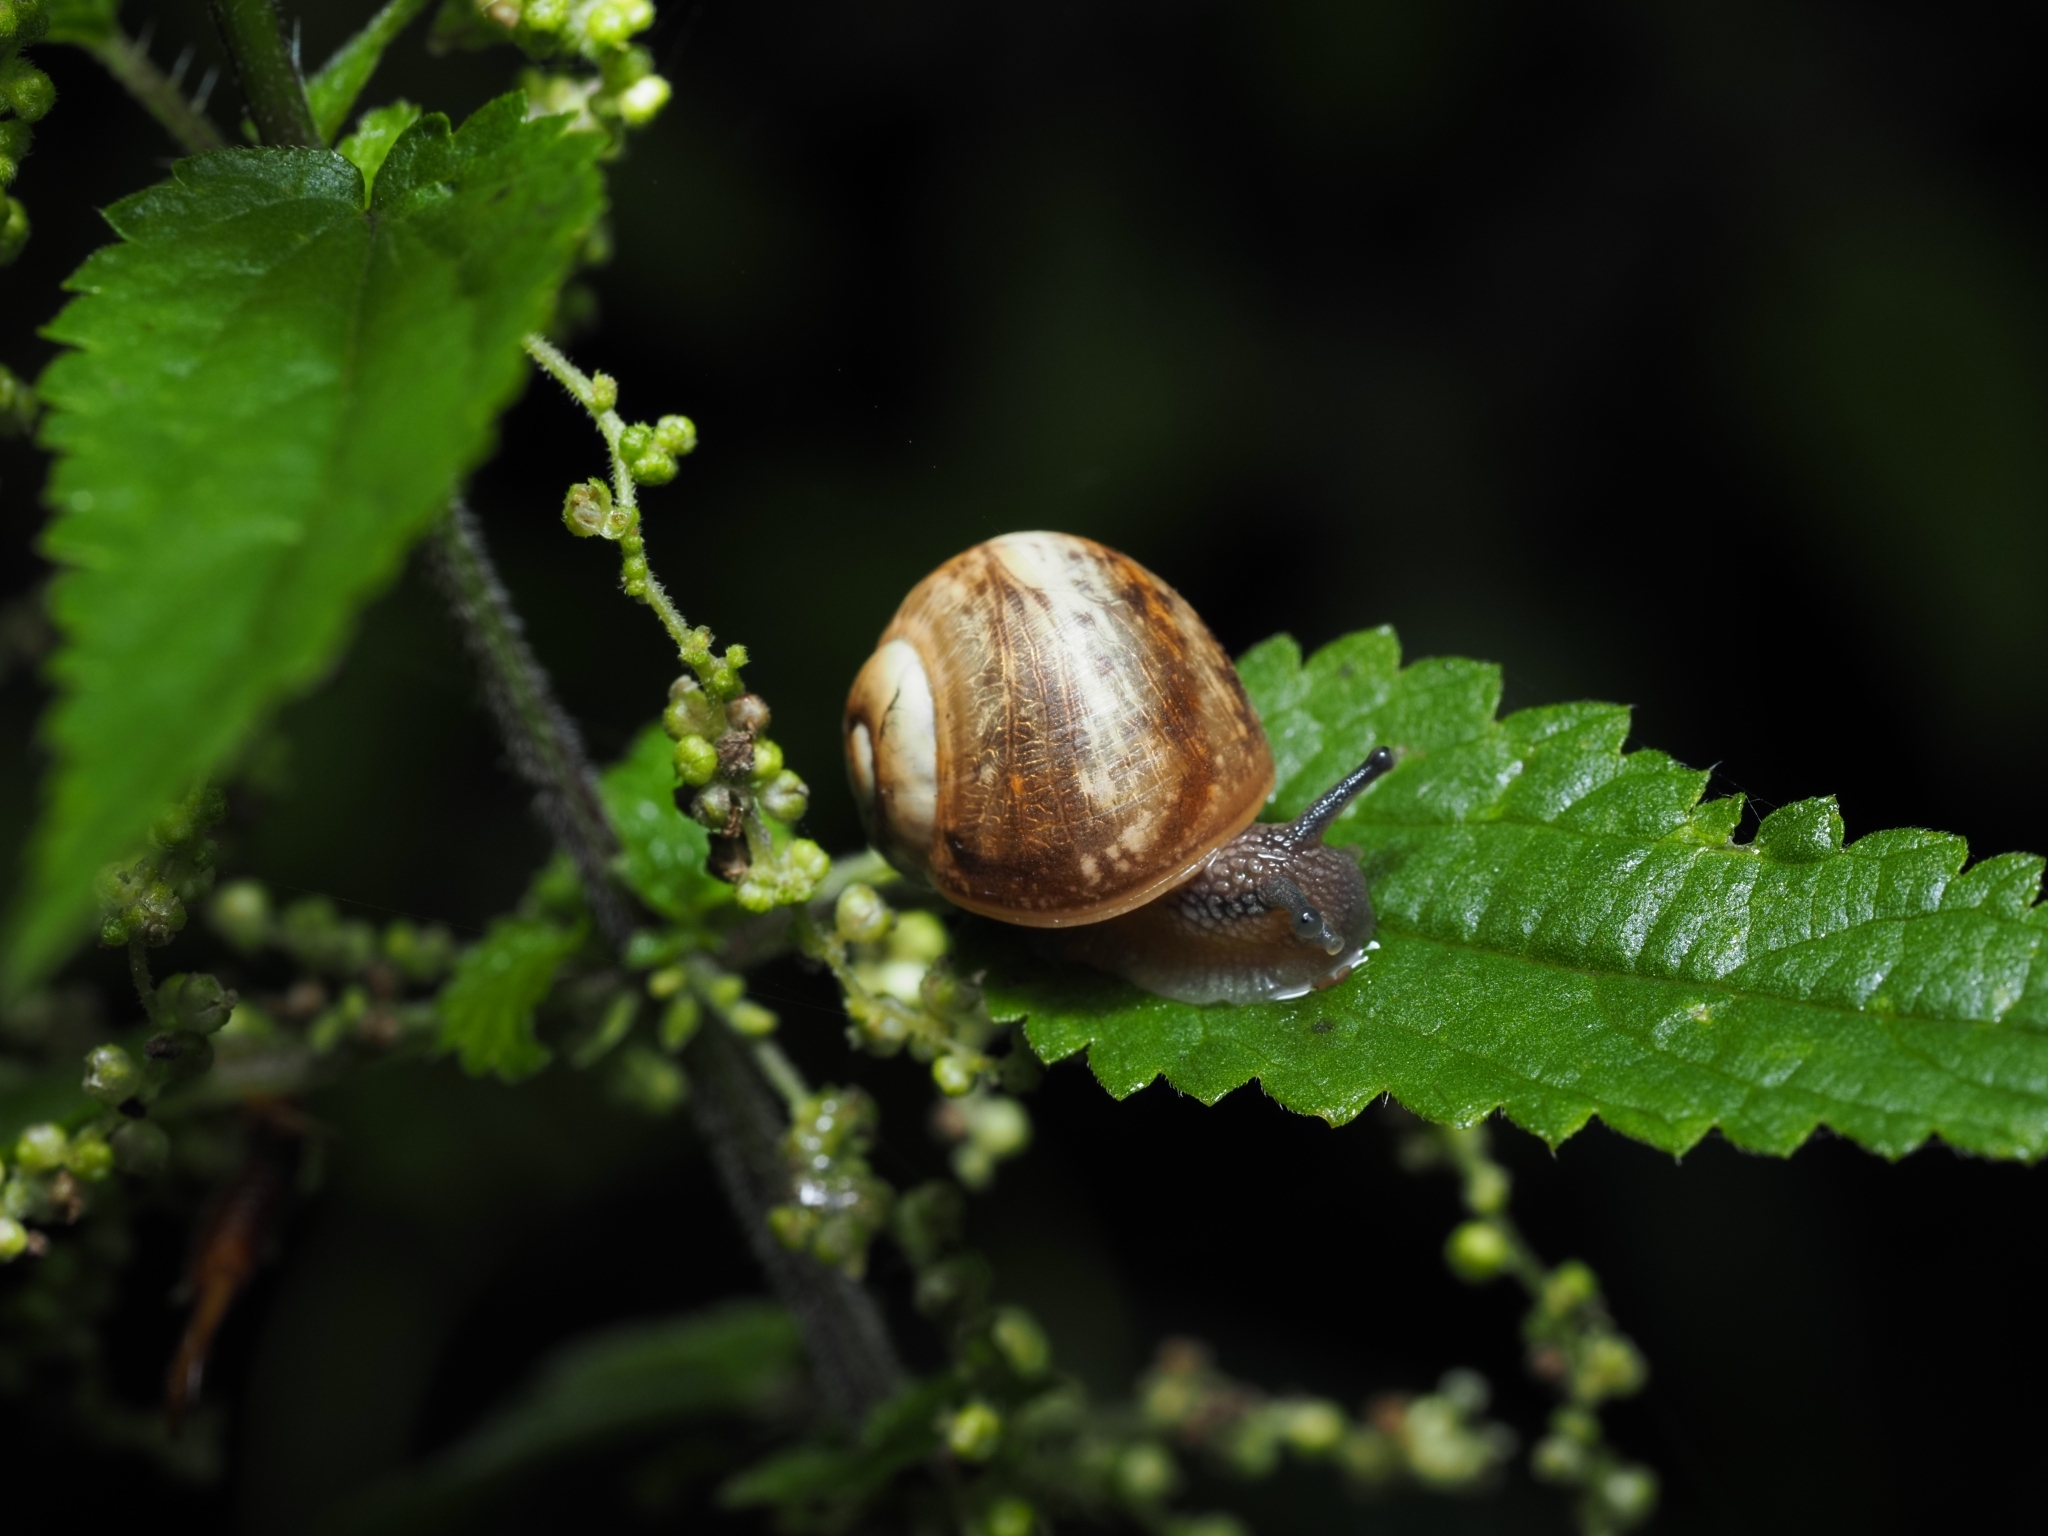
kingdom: Animalia
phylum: Mollusca
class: Gastropoda
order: Stylommatophora
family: Helicidae
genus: Helix
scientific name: Helix pomatia
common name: Roman snail
